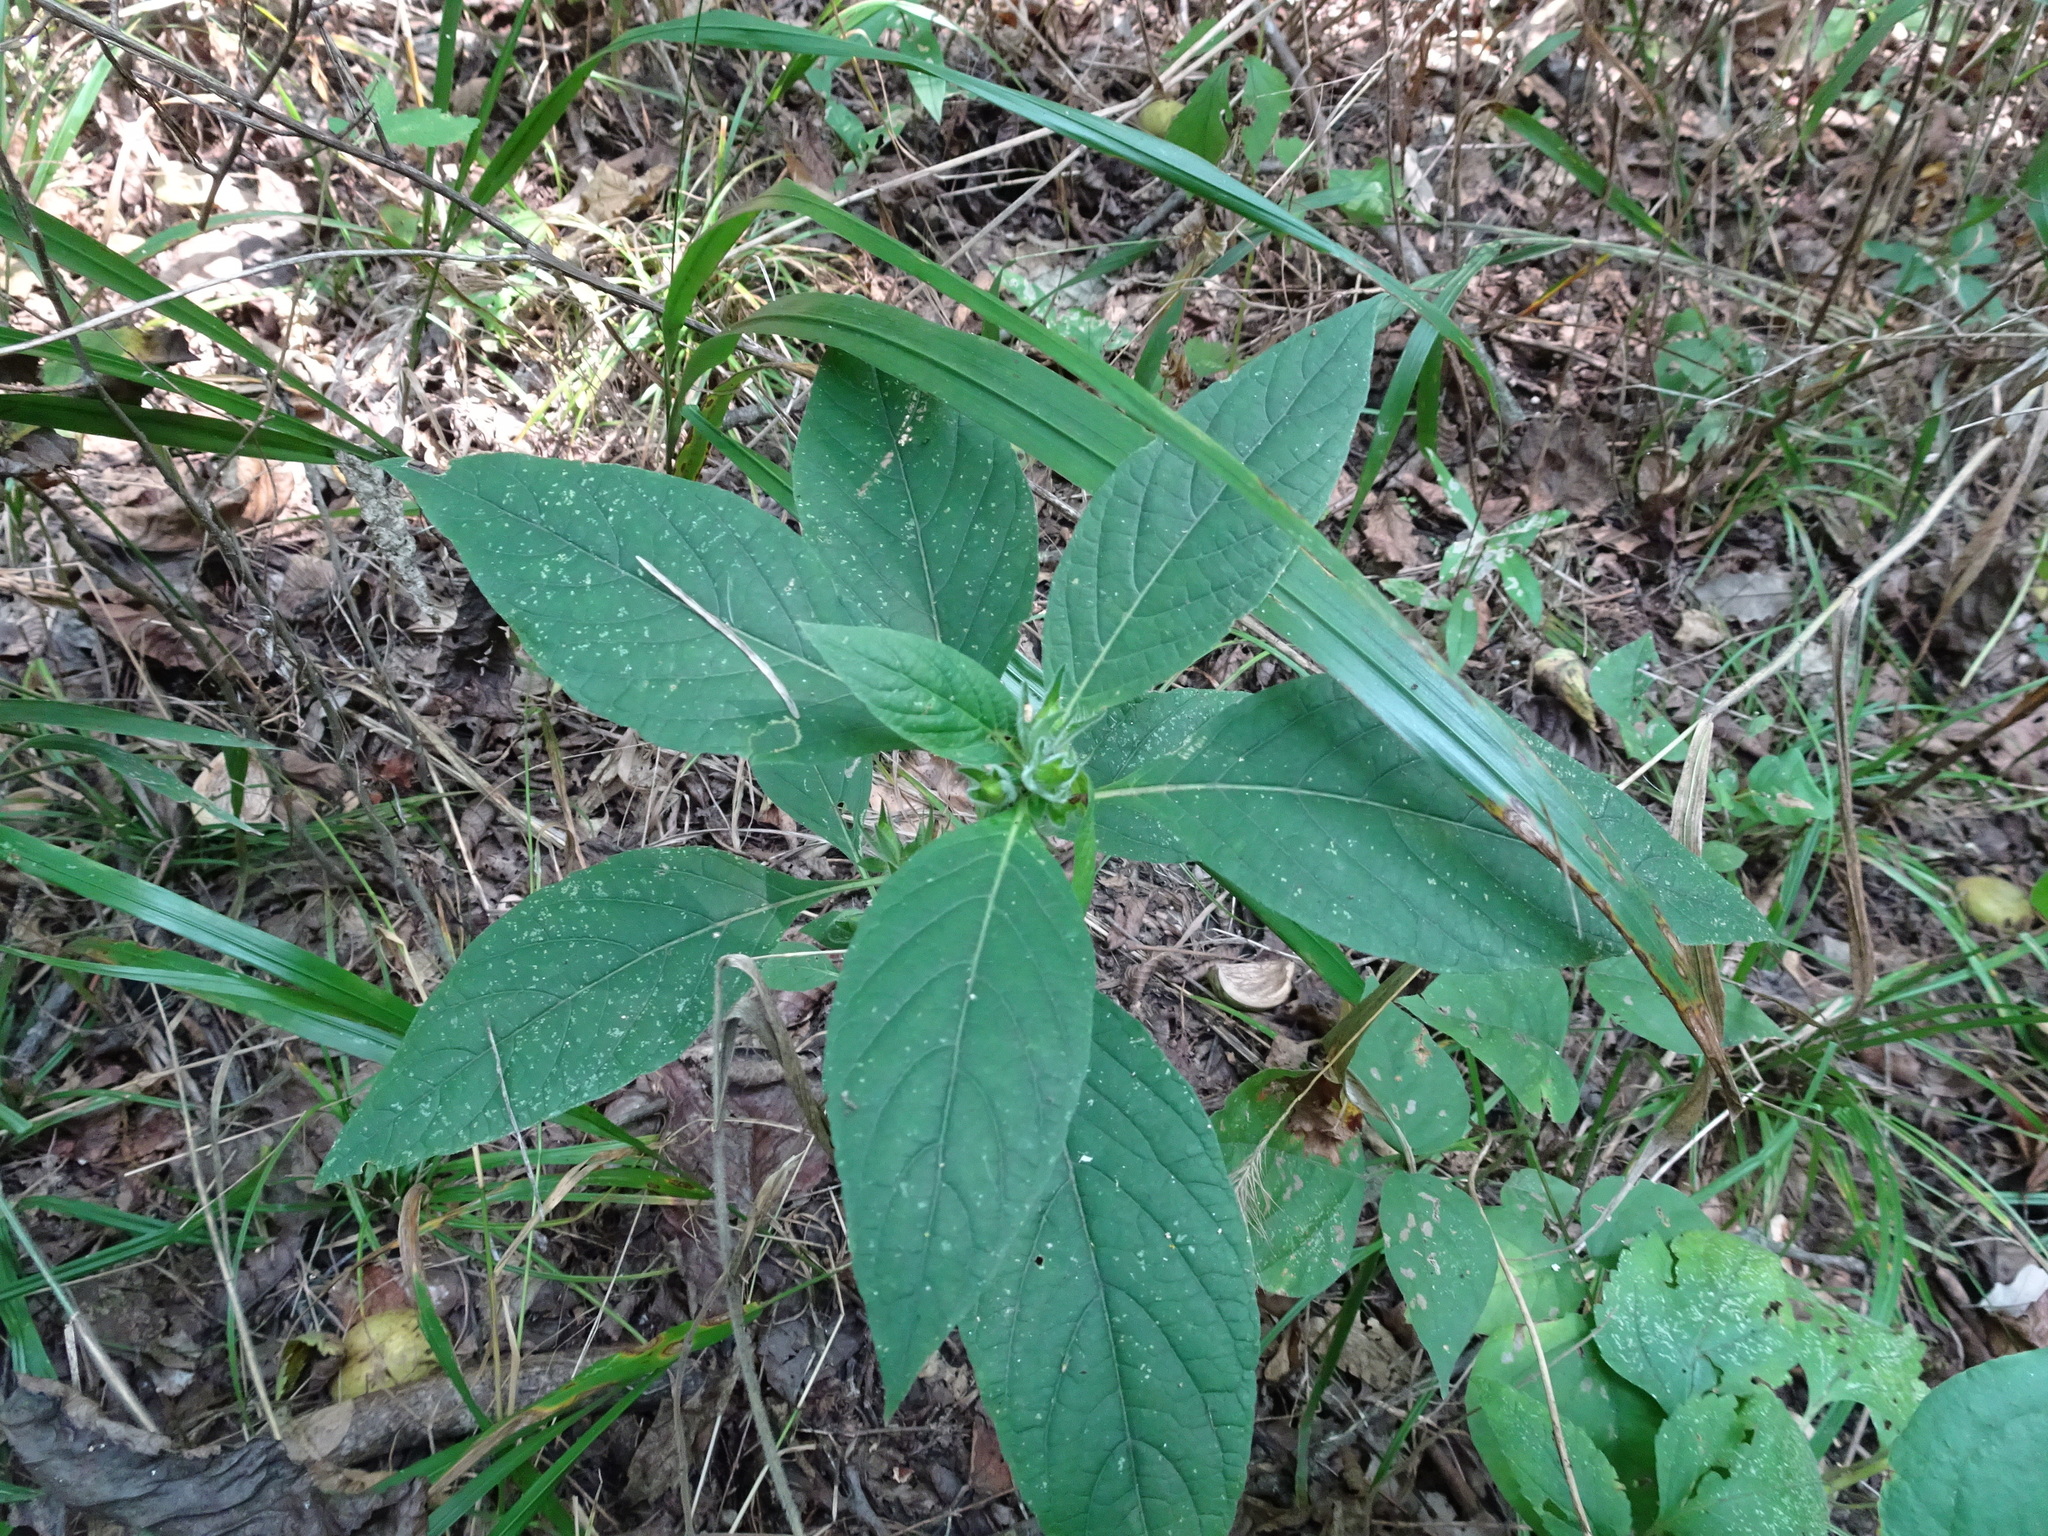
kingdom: Plantae
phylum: Tracheophyta
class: Magnoliopsida
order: Lamiales
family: Acanthaceae
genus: Ruellia
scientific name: Ruellia strepens
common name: Limestone wild petunia
